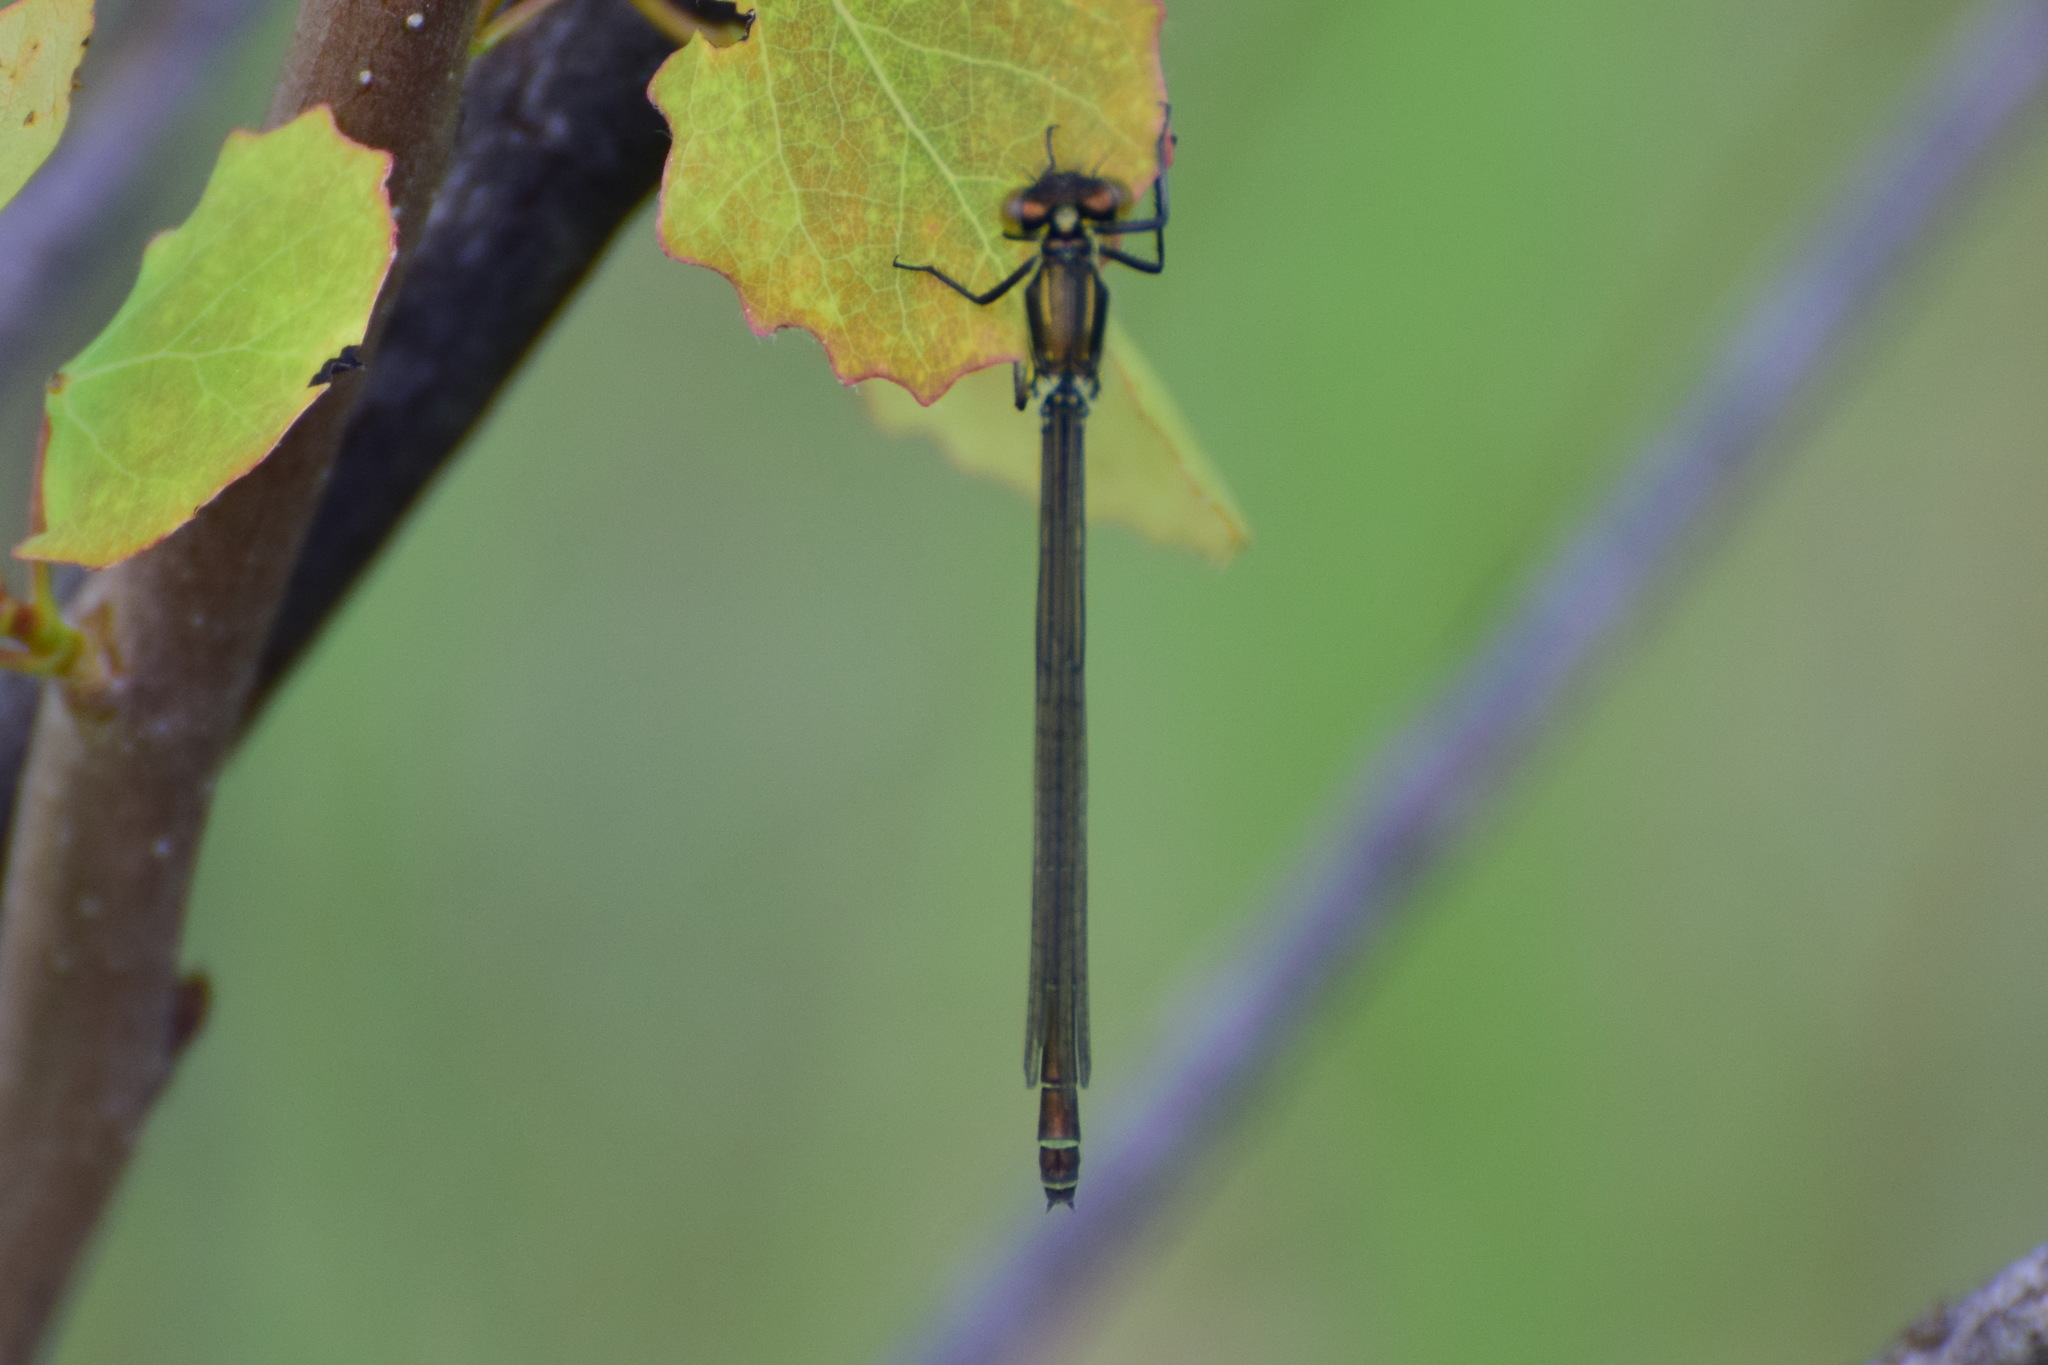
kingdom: Animalia
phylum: Arthropoda
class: Insecta
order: Odonata
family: Coenagrionidae
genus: Erythromma
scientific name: Erythromma najas
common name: Red-eyed damselfly
